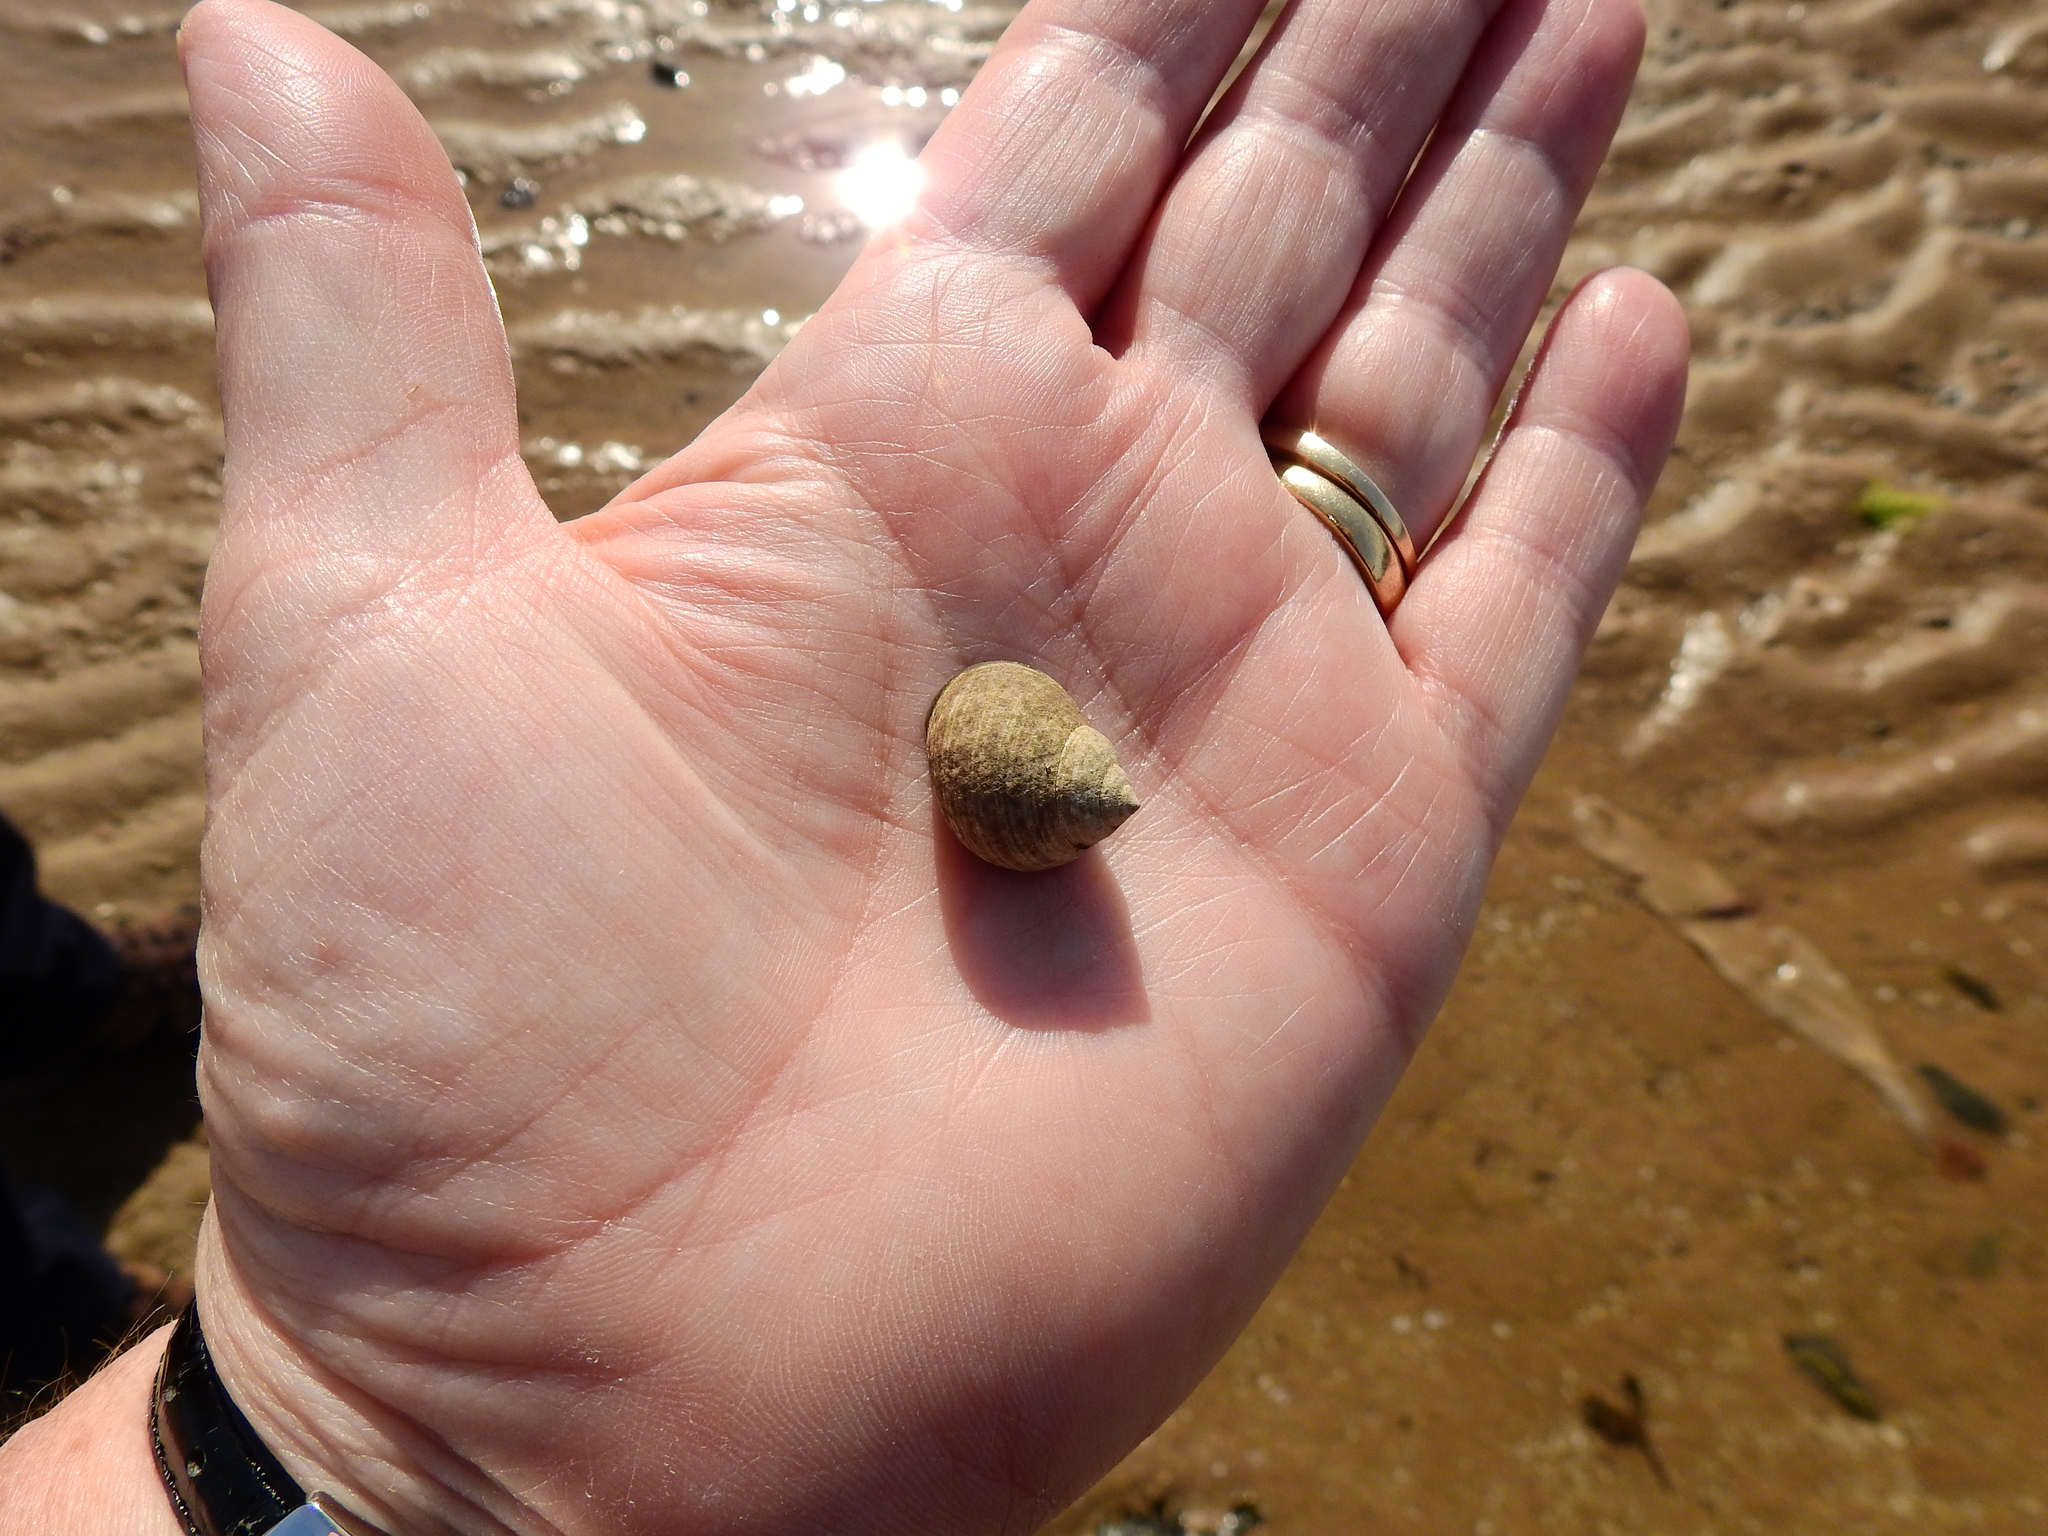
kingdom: Animalia
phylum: Mollusca
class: Gastropoda
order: Littorinimorpha
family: Littorinidae
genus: Littorina
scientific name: Littorina littorea
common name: Common periwinkle
